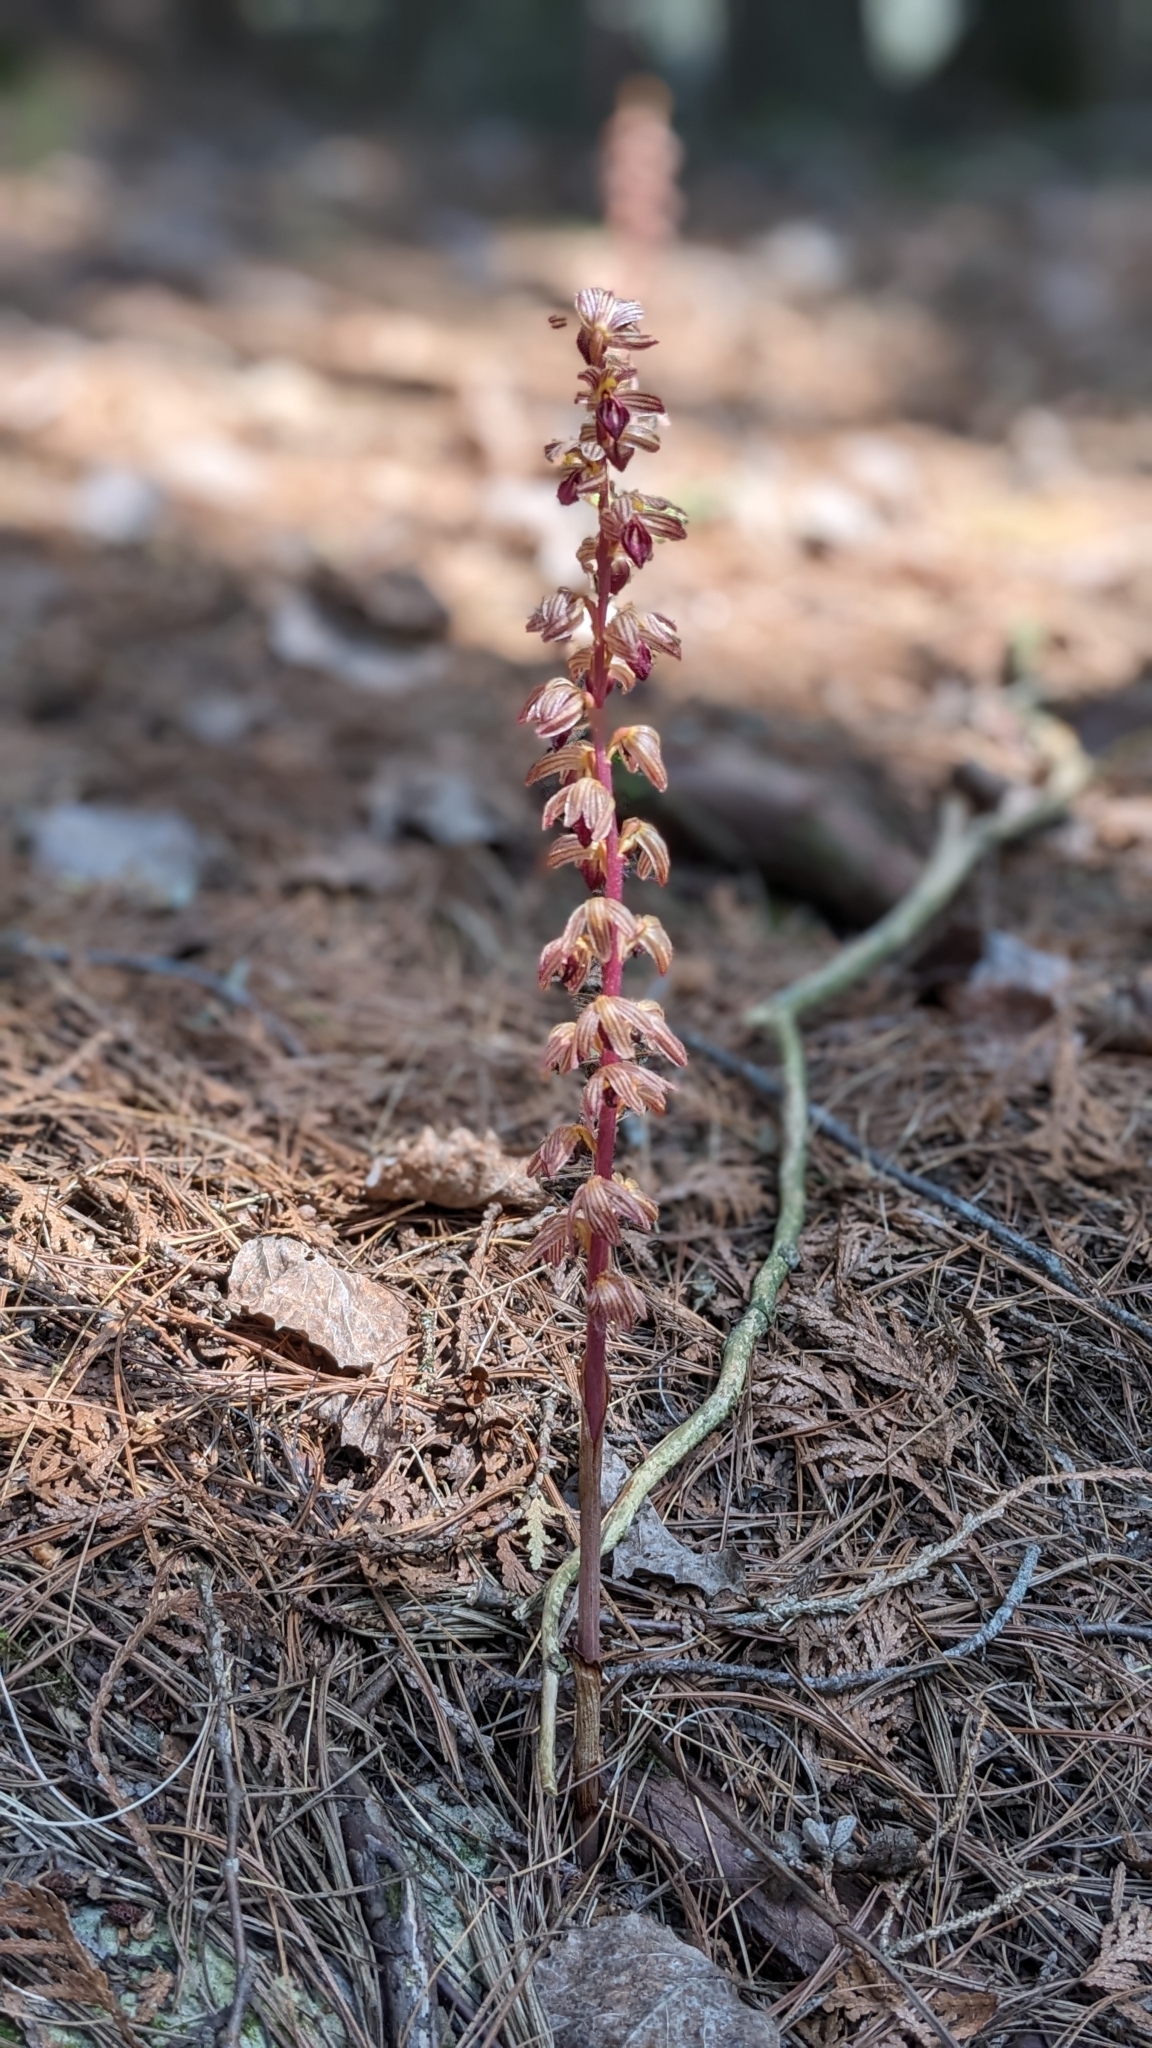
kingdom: Plantae
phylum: Tracheophyta
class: Liliopsida
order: Asparagales
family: Orchidaceae
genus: Corallorhiza
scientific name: Corallorhiza striata
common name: Hooded coralroot
